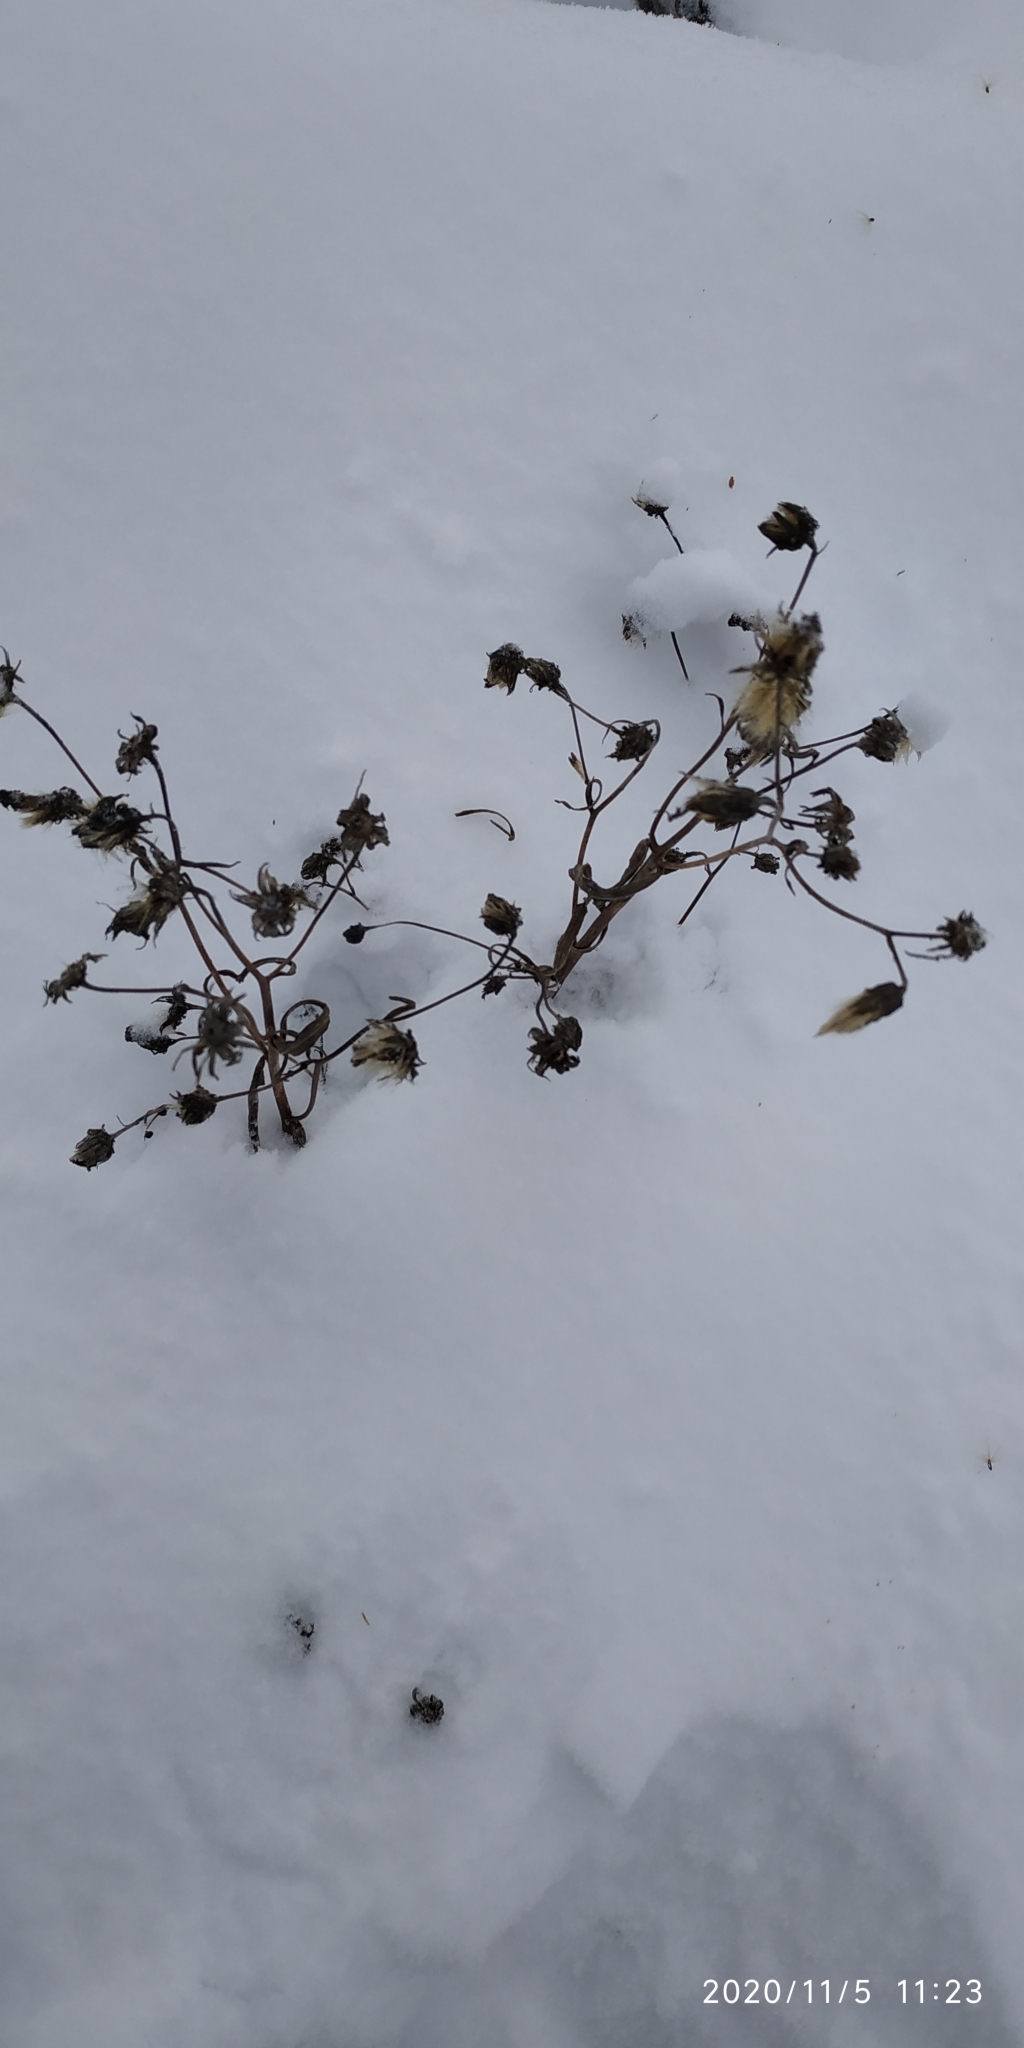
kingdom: Plantae
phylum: Tracheophyta
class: Magnoliopsida
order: Asterales
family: Asteraceae
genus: Crepis
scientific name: Crepis tectorum
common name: Narrow-leaved hawk's-beard
